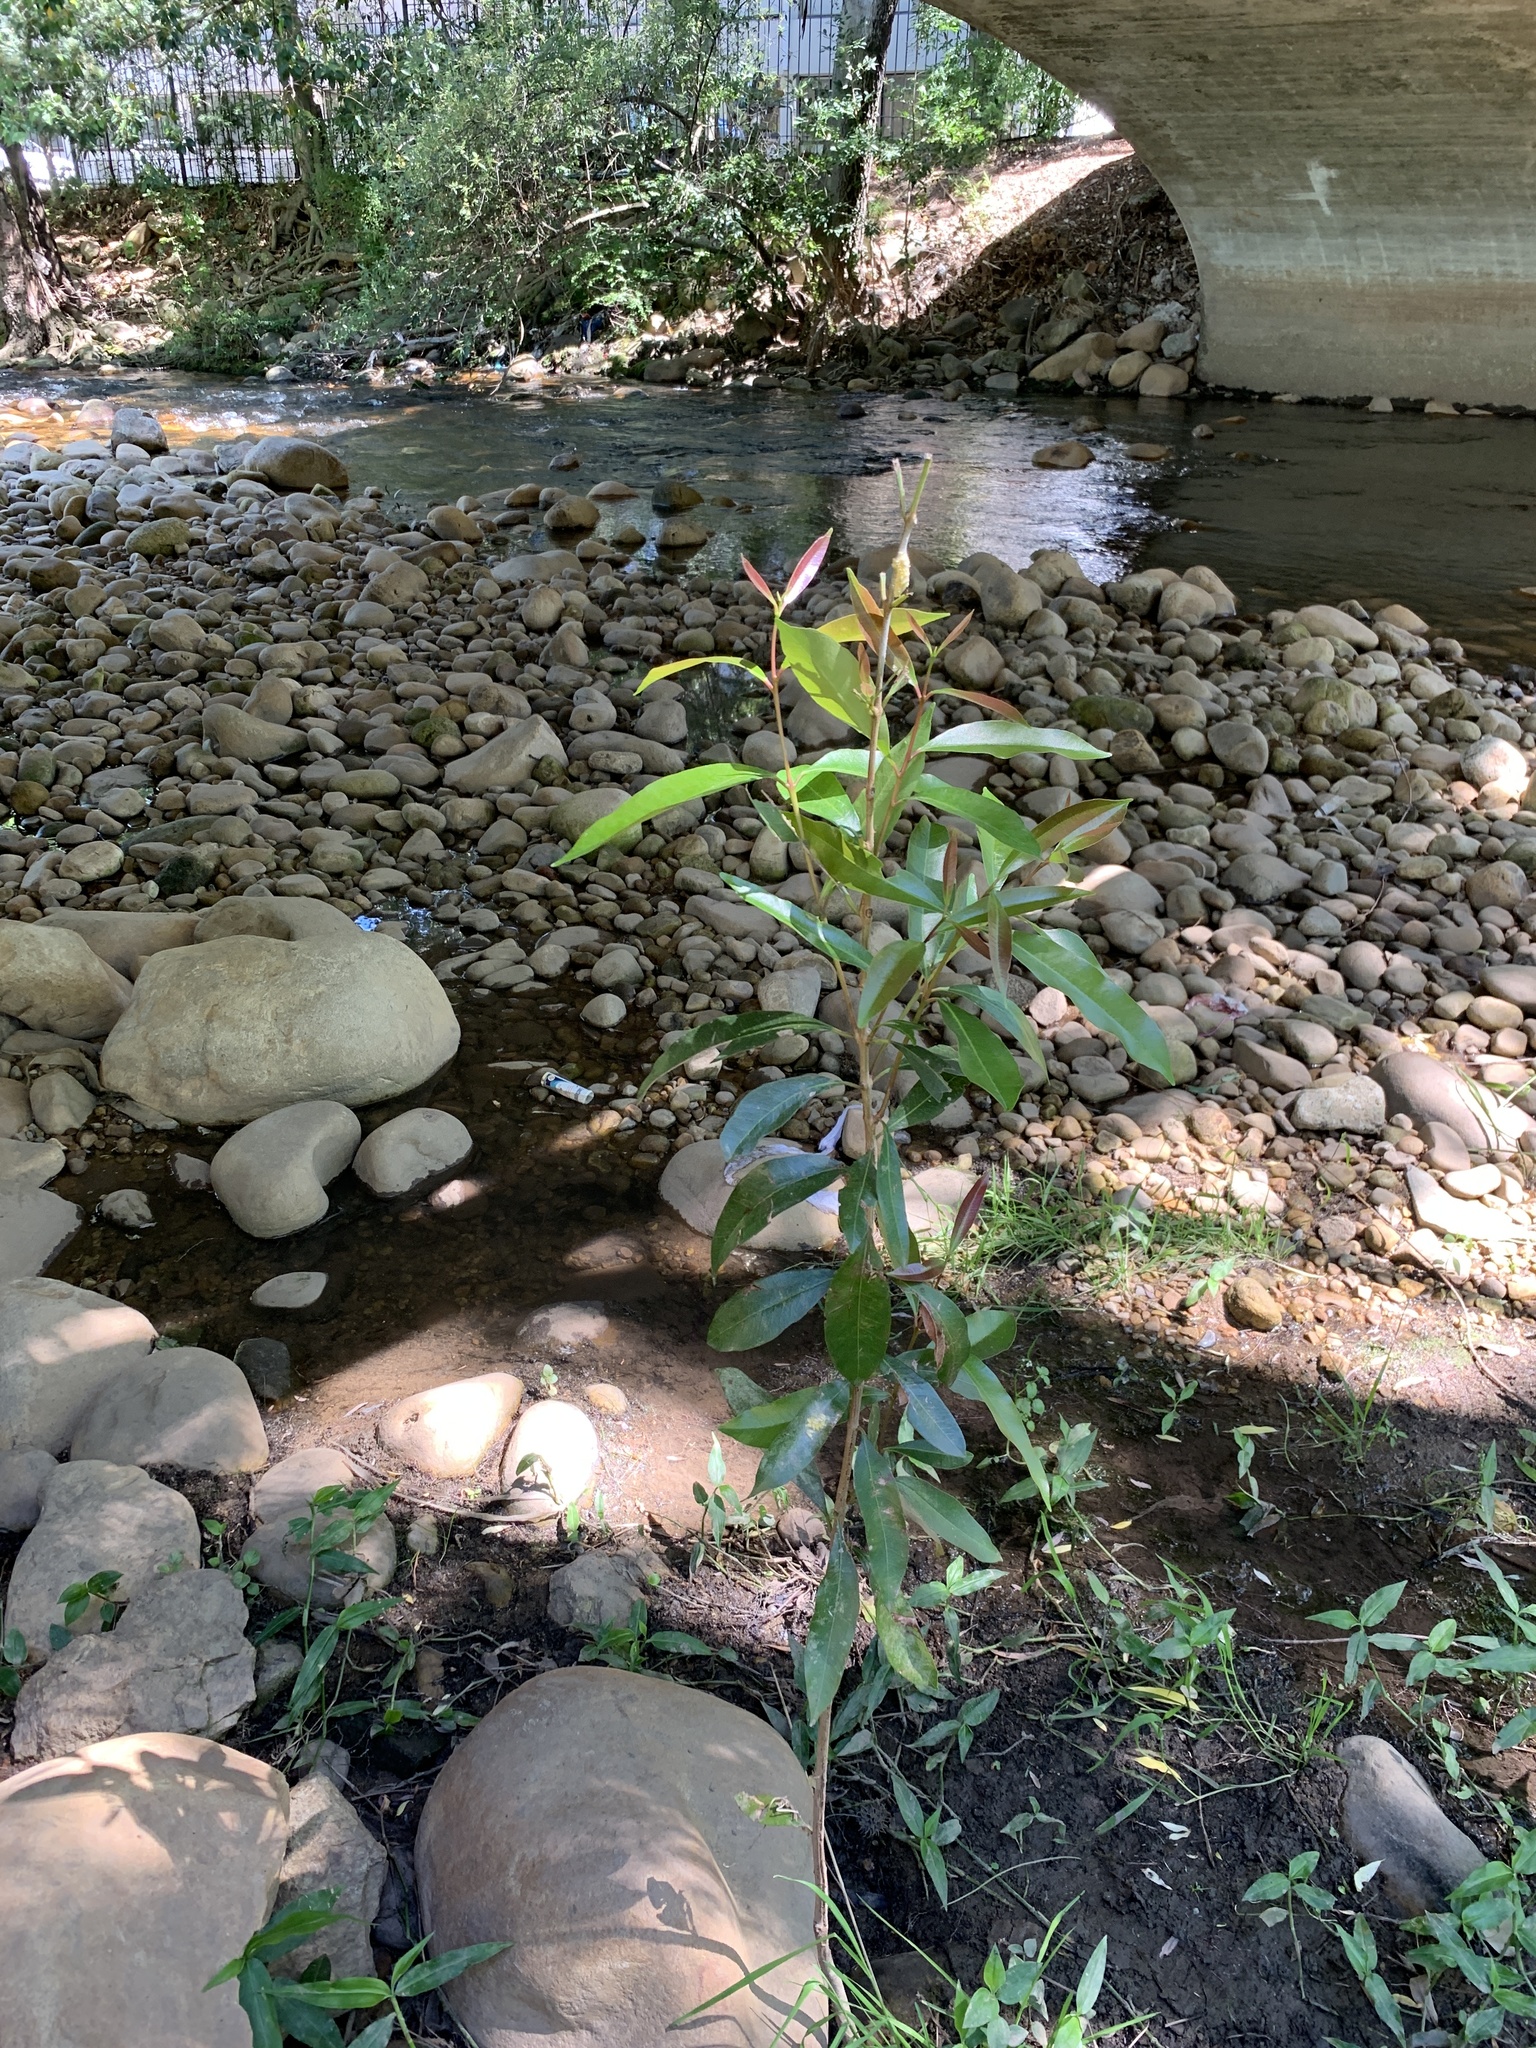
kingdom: Plantae
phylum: Tracheophyta
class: Magnoliopsida
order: Myrtales
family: Myrtaceae
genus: Syzygium
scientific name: Syzygium australe
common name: Australian brush-cherry
